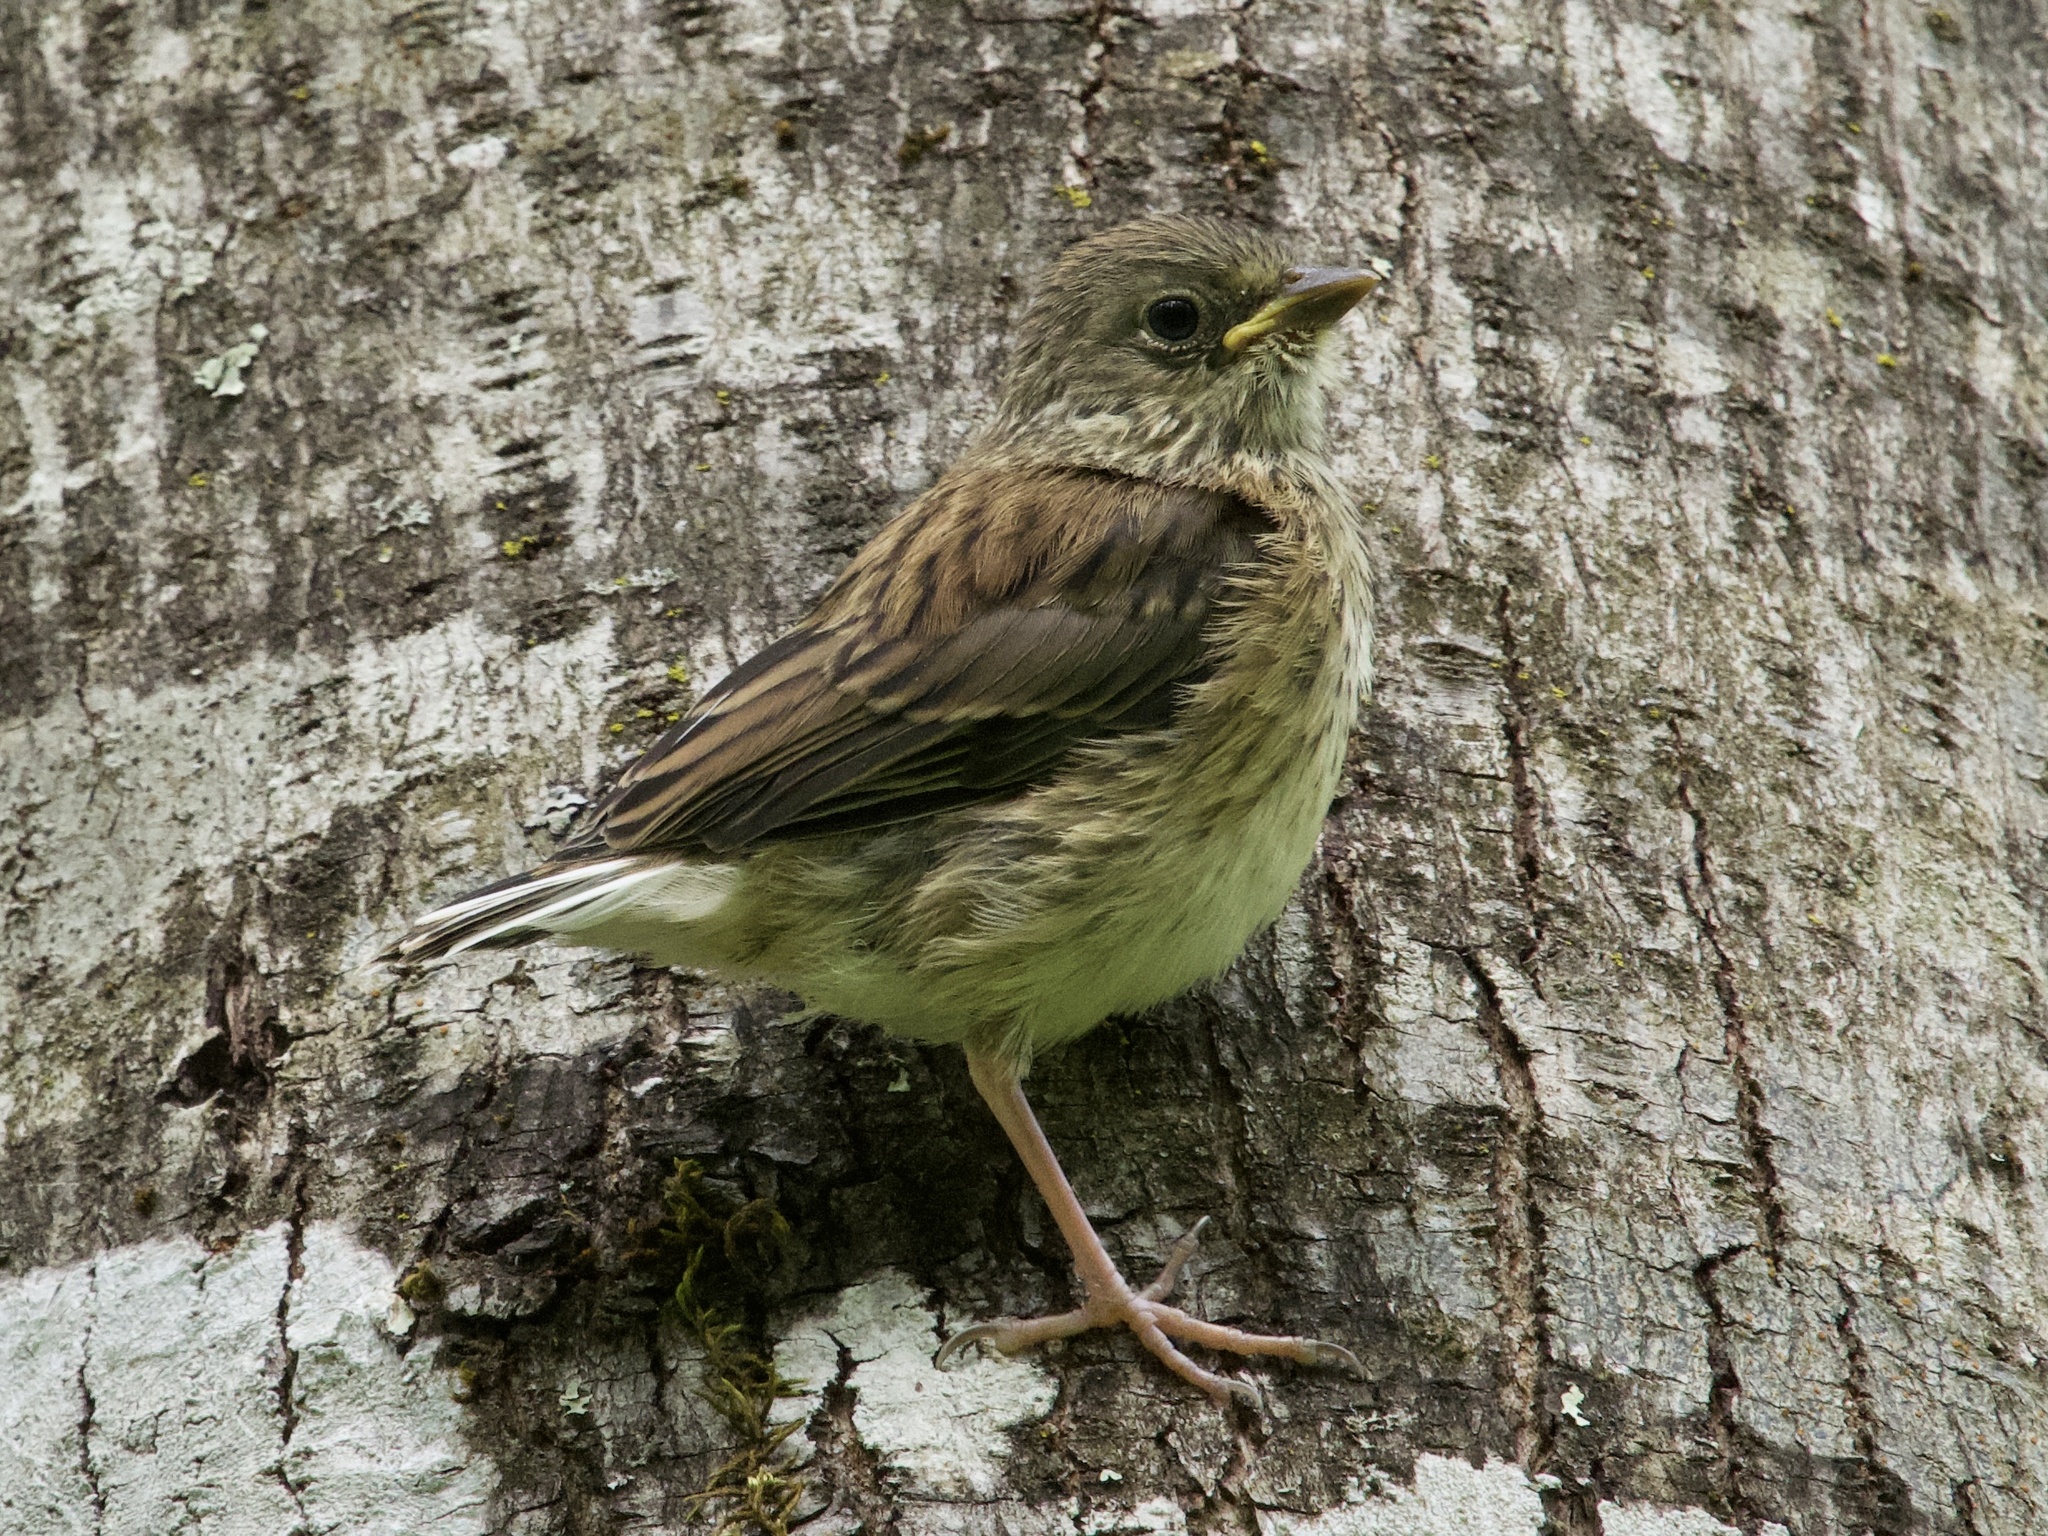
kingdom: Animalia
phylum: Chordata
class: Aves
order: Passeriformes
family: Passerellidae
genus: Junco
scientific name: Junco hyemalis
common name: Dark-eyed junco
